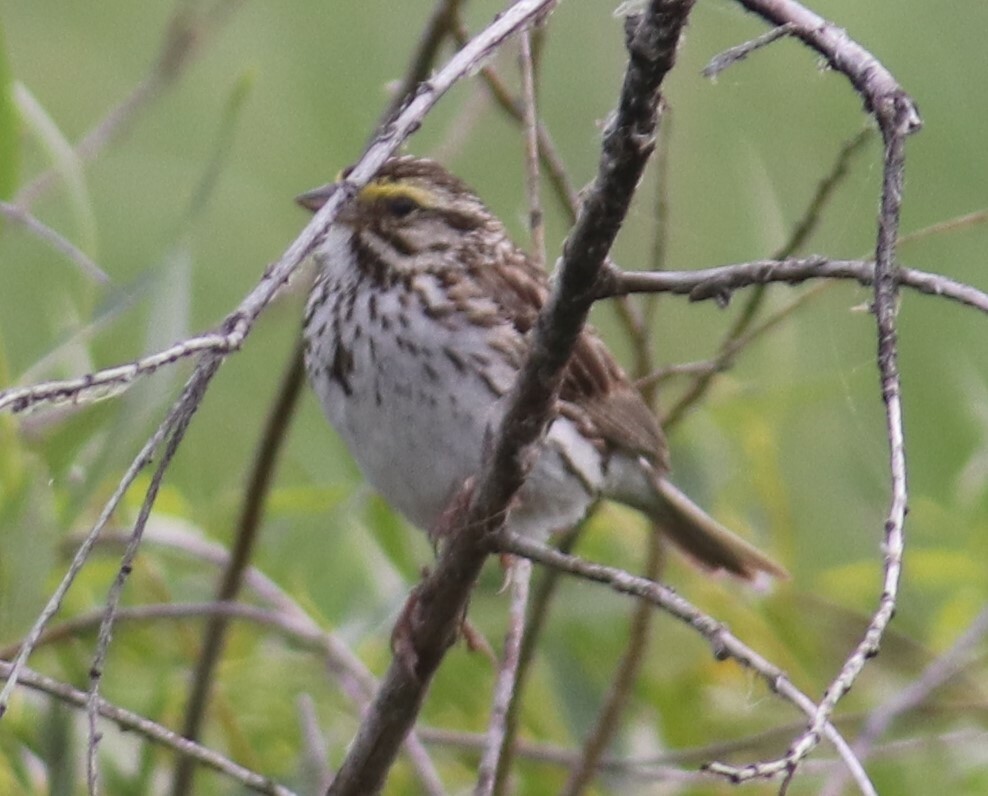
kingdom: Animalia
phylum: Chordata
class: Aves
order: Passeriformes
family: Passerellidae
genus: Passerculus
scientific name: Passerculus sandwichensis
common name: Savannah sparrow
